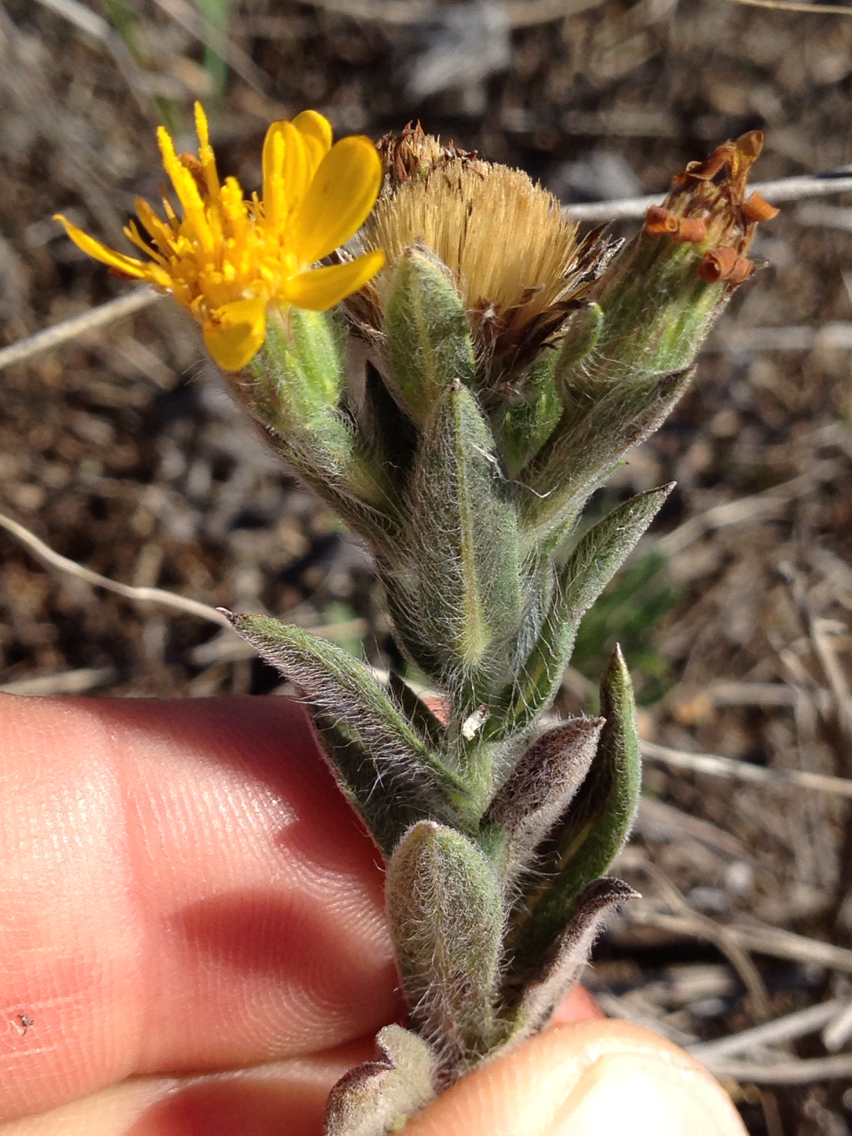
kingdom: Plantae
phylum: Tracheophyta
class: Magnoliopsida
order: Asterales
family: Asteraceae
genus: Heterotheca
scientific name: Heterotheca sessiliflora
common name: Sessile-flower golden-aster
